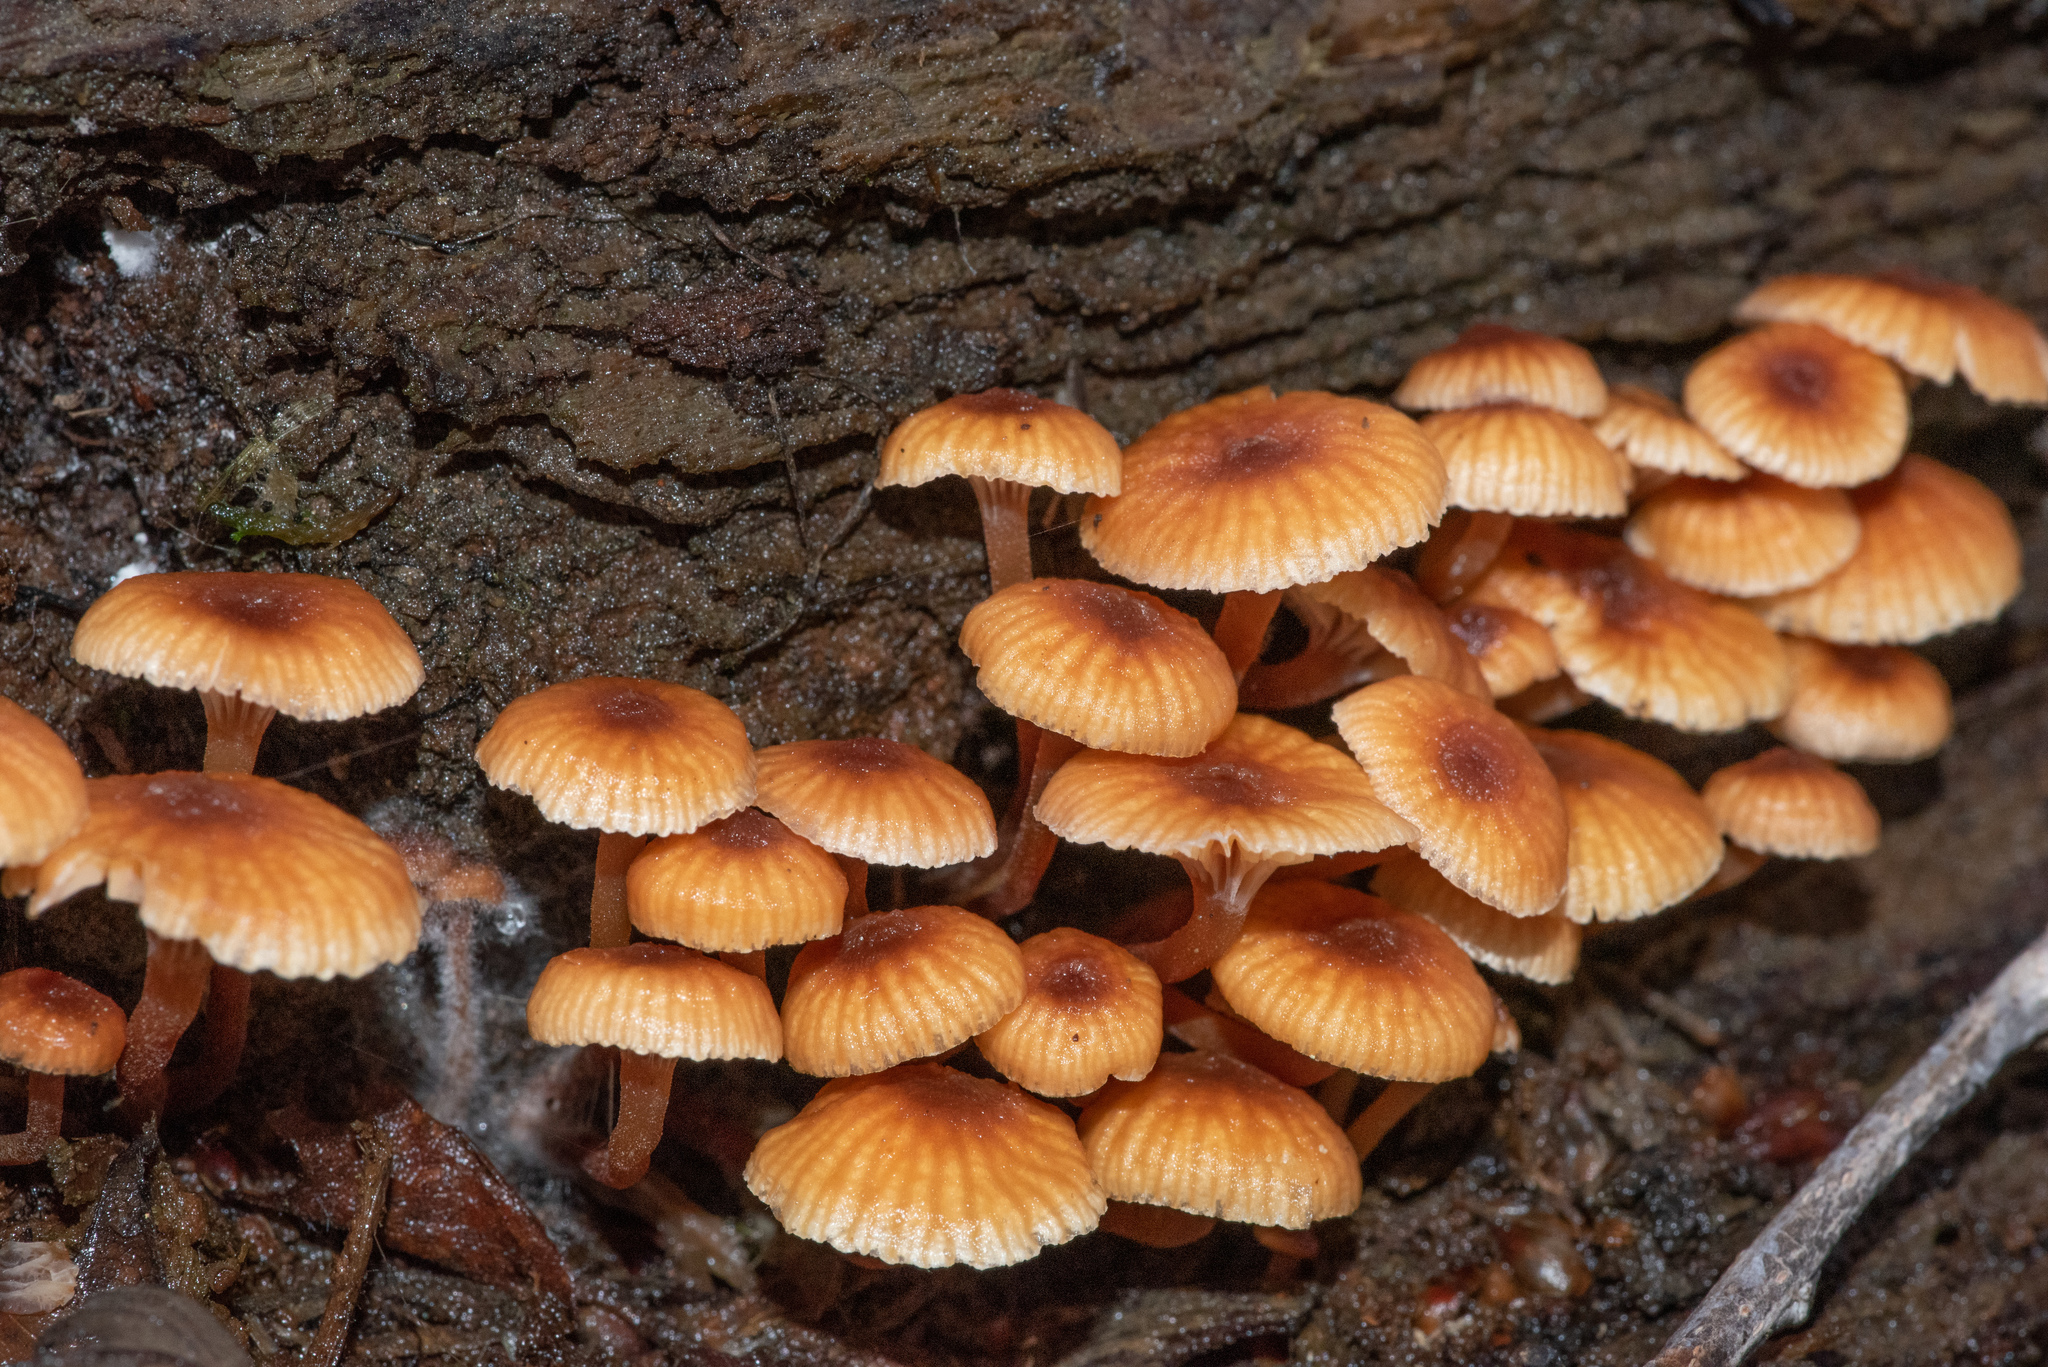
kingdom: Fungi
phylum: Basidiomycota
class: Agaricomycetes
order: Agaricales
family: Mycenaceae
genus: Xeromphalina
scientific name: Xeromphalina campanella
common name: Pinewood gingertail
